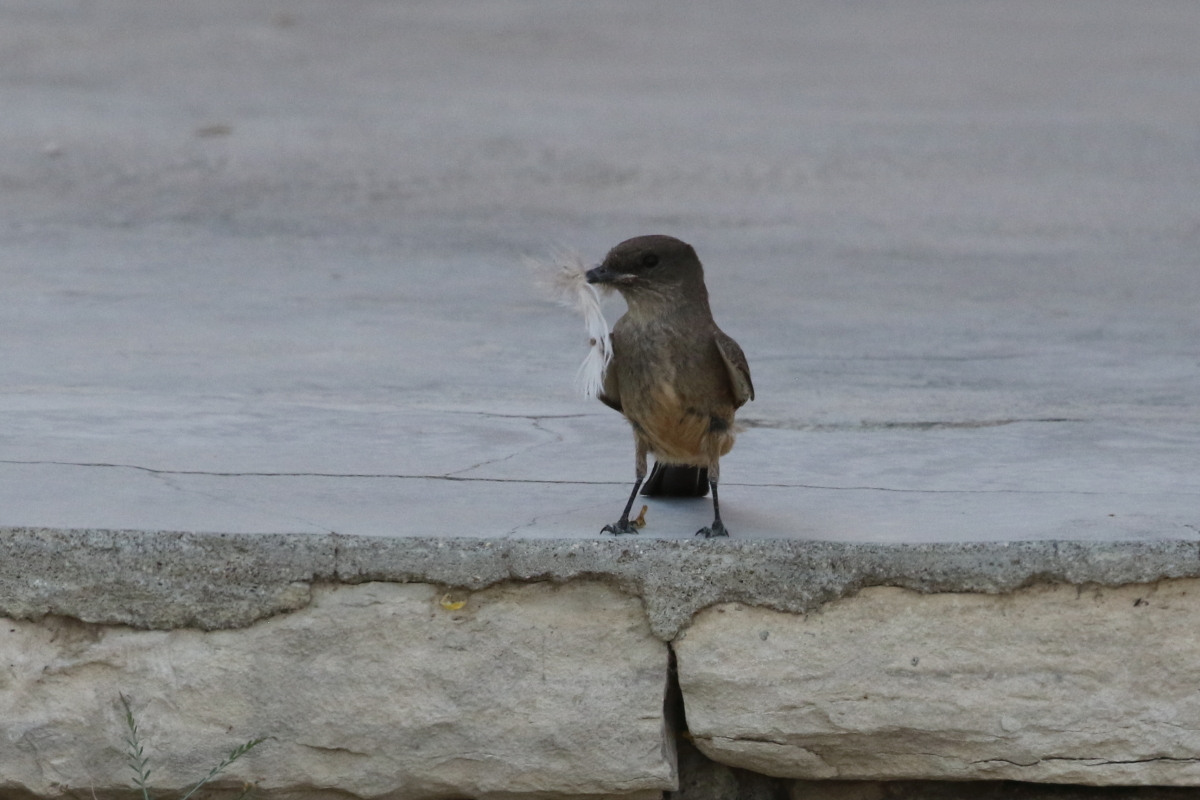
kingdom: Animalia
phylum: Chordata
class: Aves
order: Passeriformes
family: Tyrannidae
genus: Sayornis
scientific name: Sayornis saya
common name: Say's phoebe
